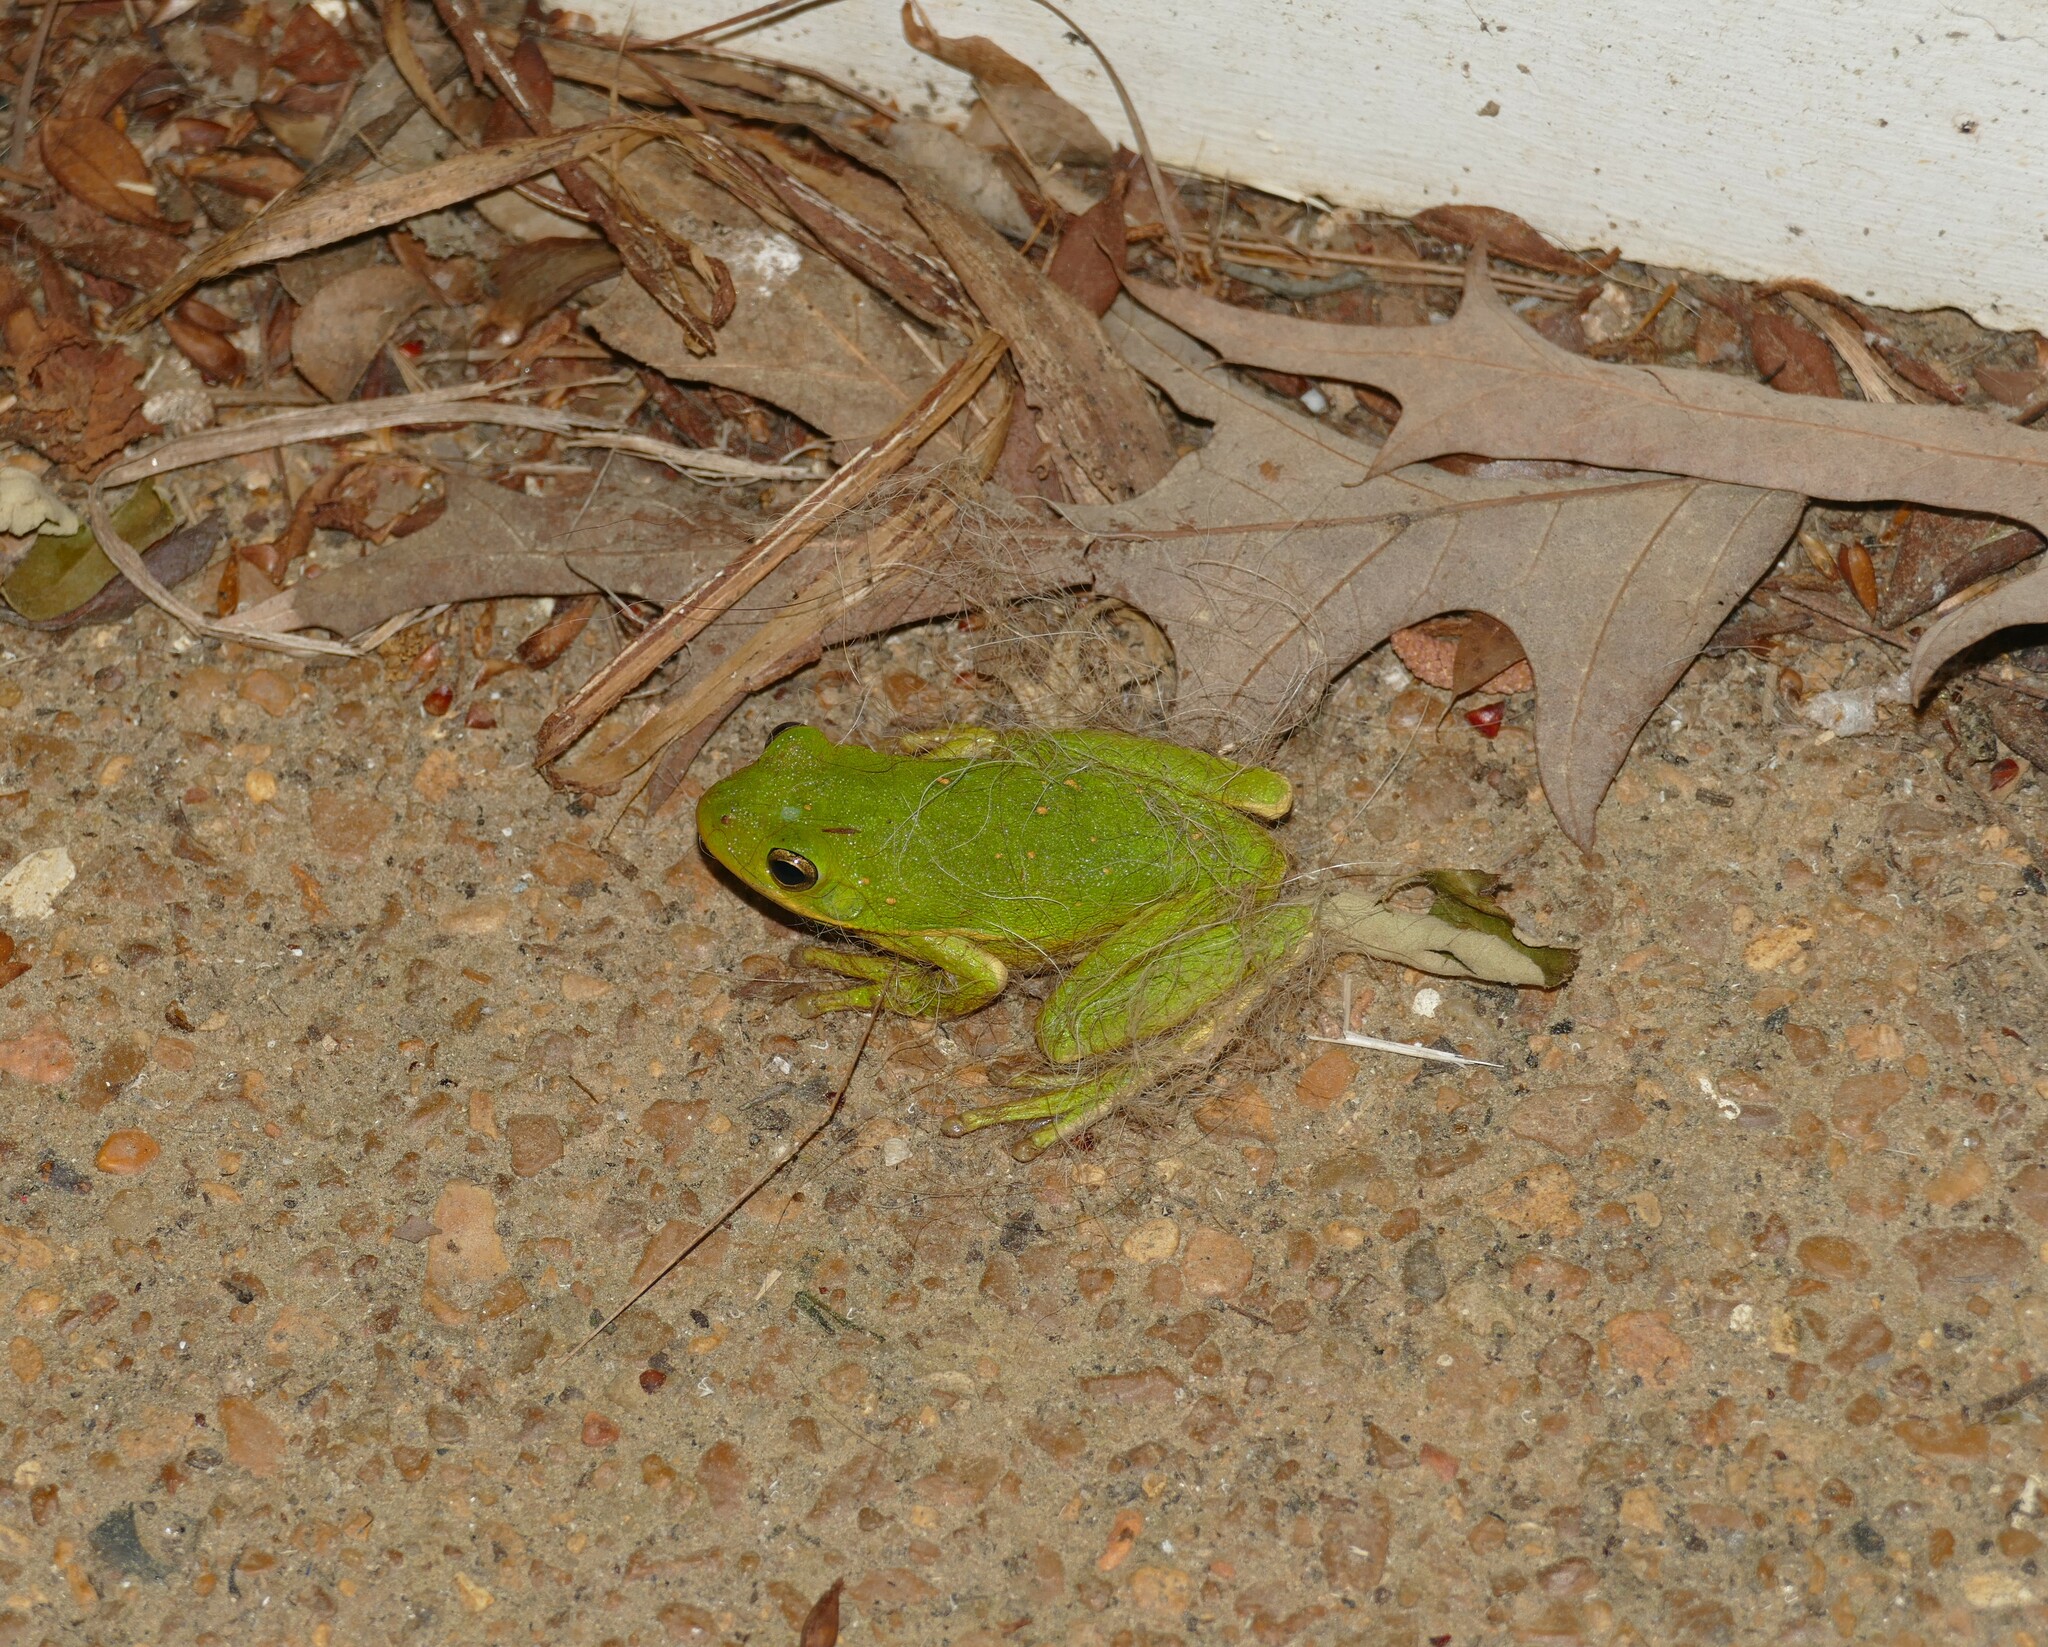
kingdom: Animalia
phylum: Chordata
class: Amphibia
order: Anura
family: Hylidae
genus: Dryophytes
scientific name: Dryophytes gratiosus
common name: Barking treefrog
